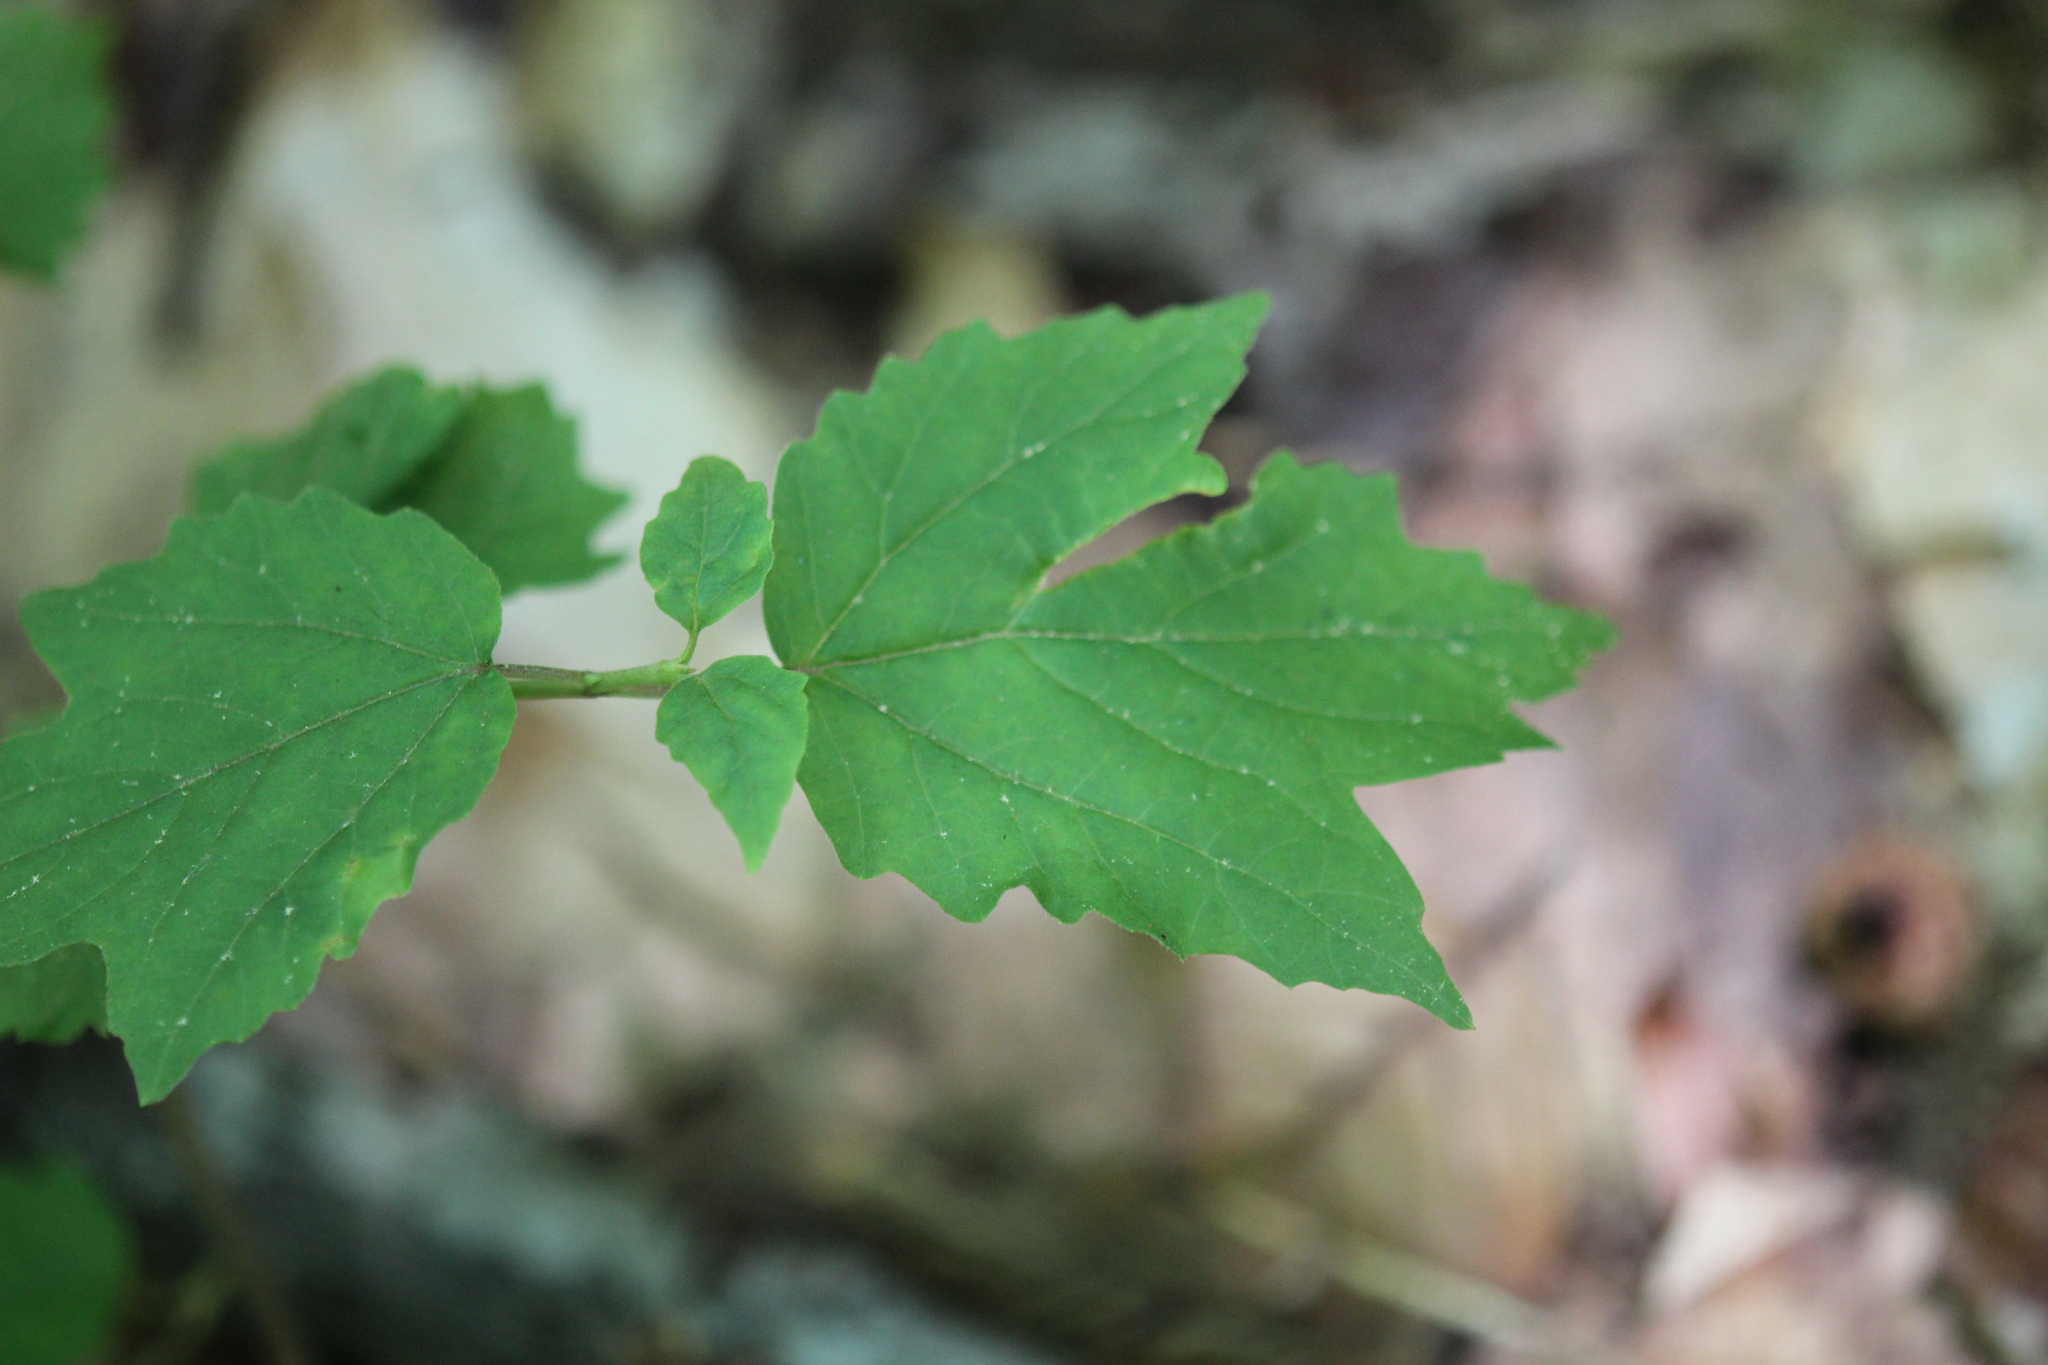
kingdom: Plantae
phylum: Tracheophyta
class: Magnoliopsida
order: Dipsacales
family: Viburnaceae
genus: Viburnum
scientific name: Viburnum acerifolium
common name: Dockmackie
